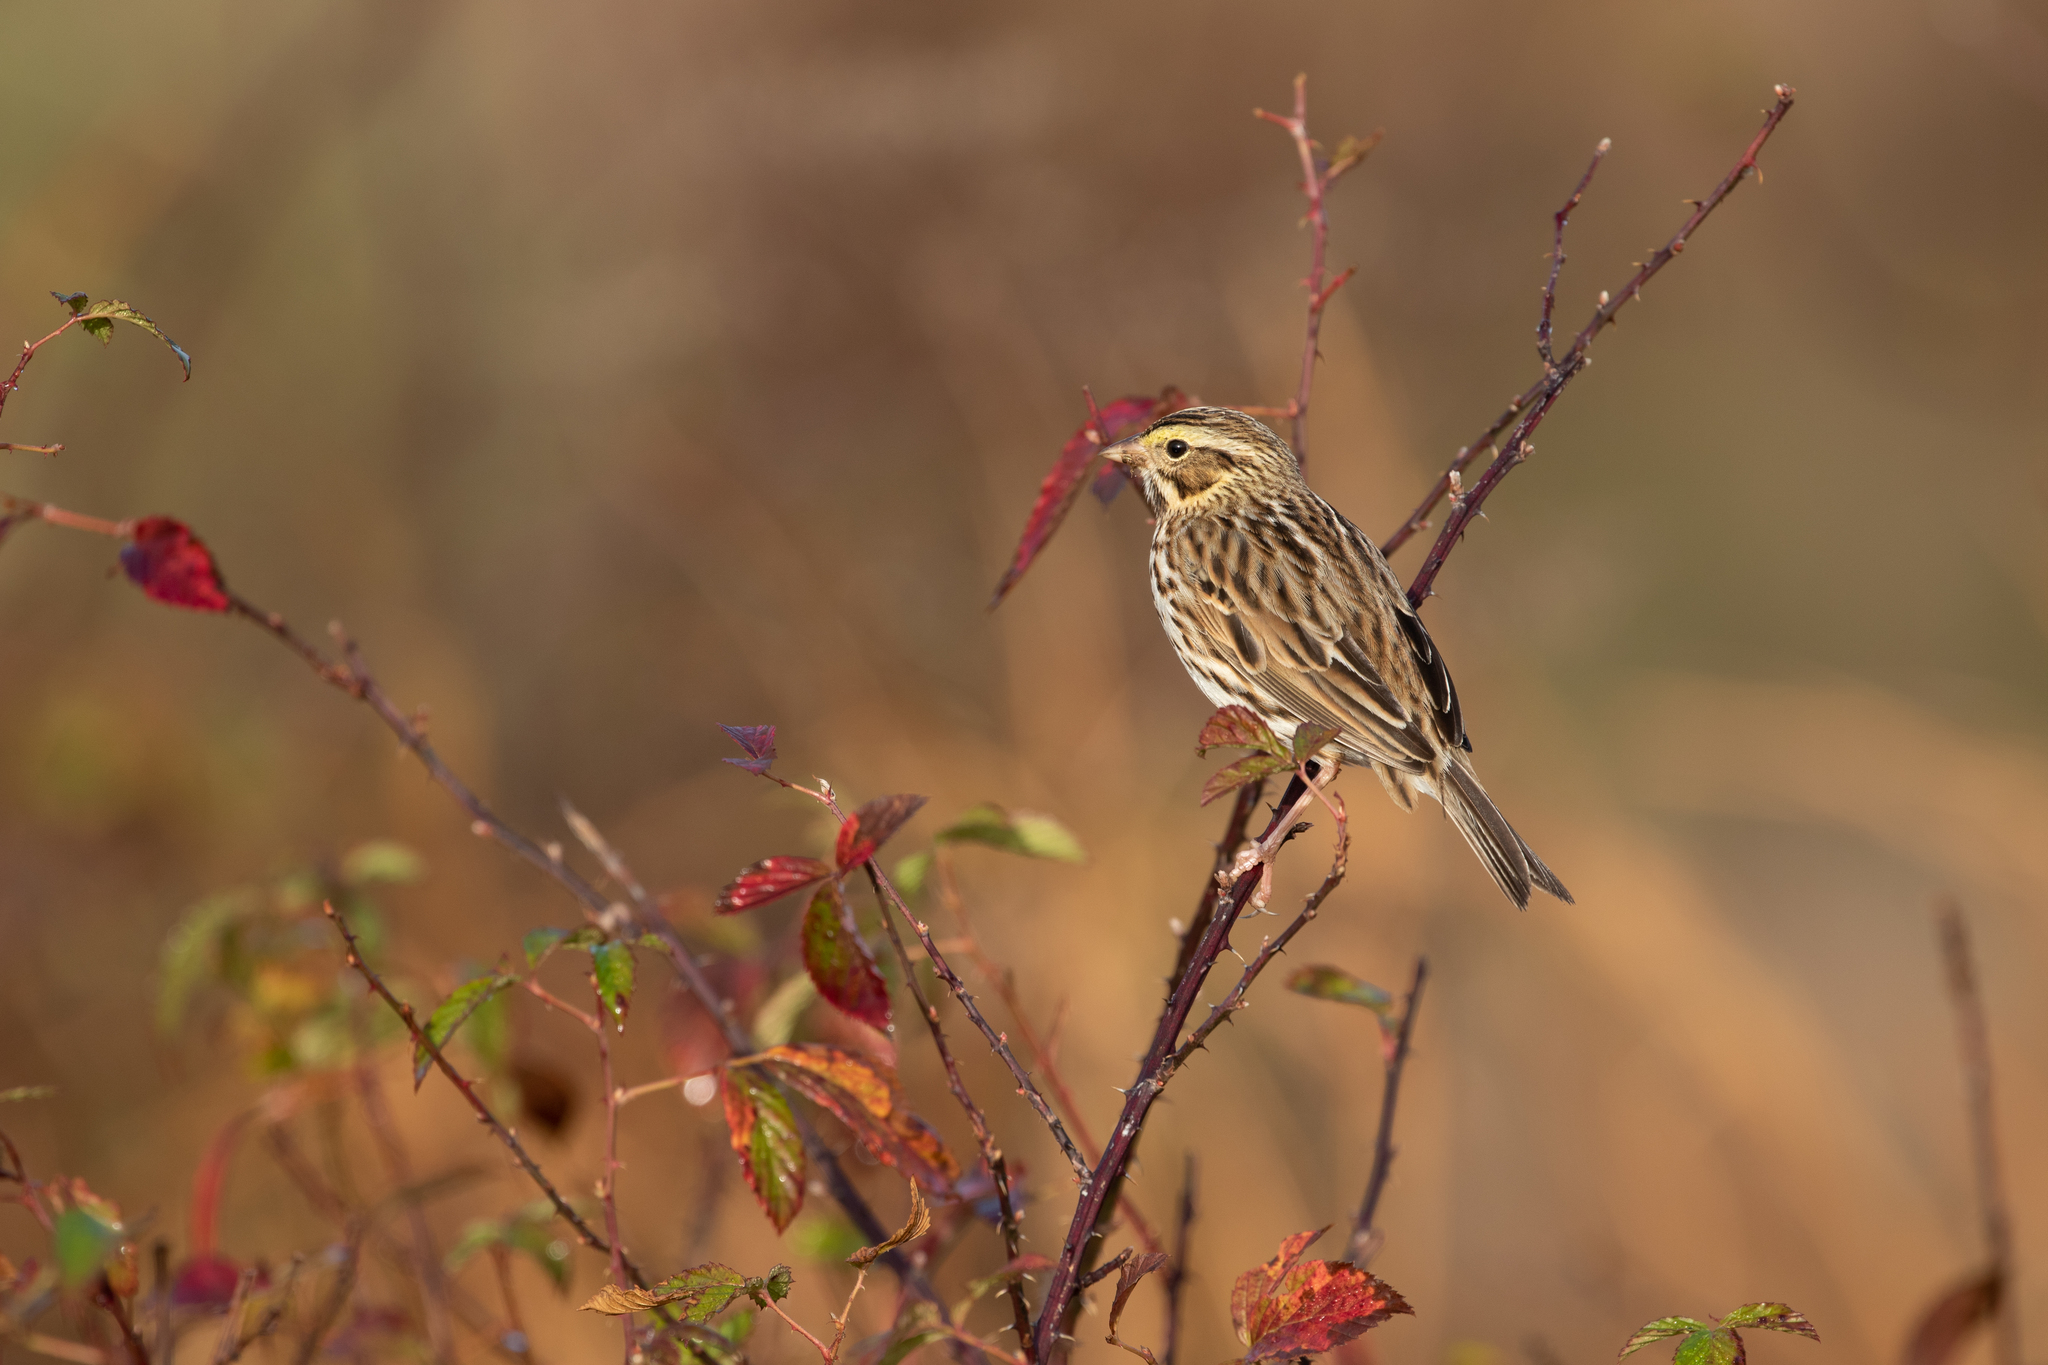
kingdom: Animalia
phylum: Chordata
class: Aves
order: Passeriformes
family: Passerellidae
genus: Passerculus
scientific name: Passerculus sandwichensis
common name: Savannah sparrow
